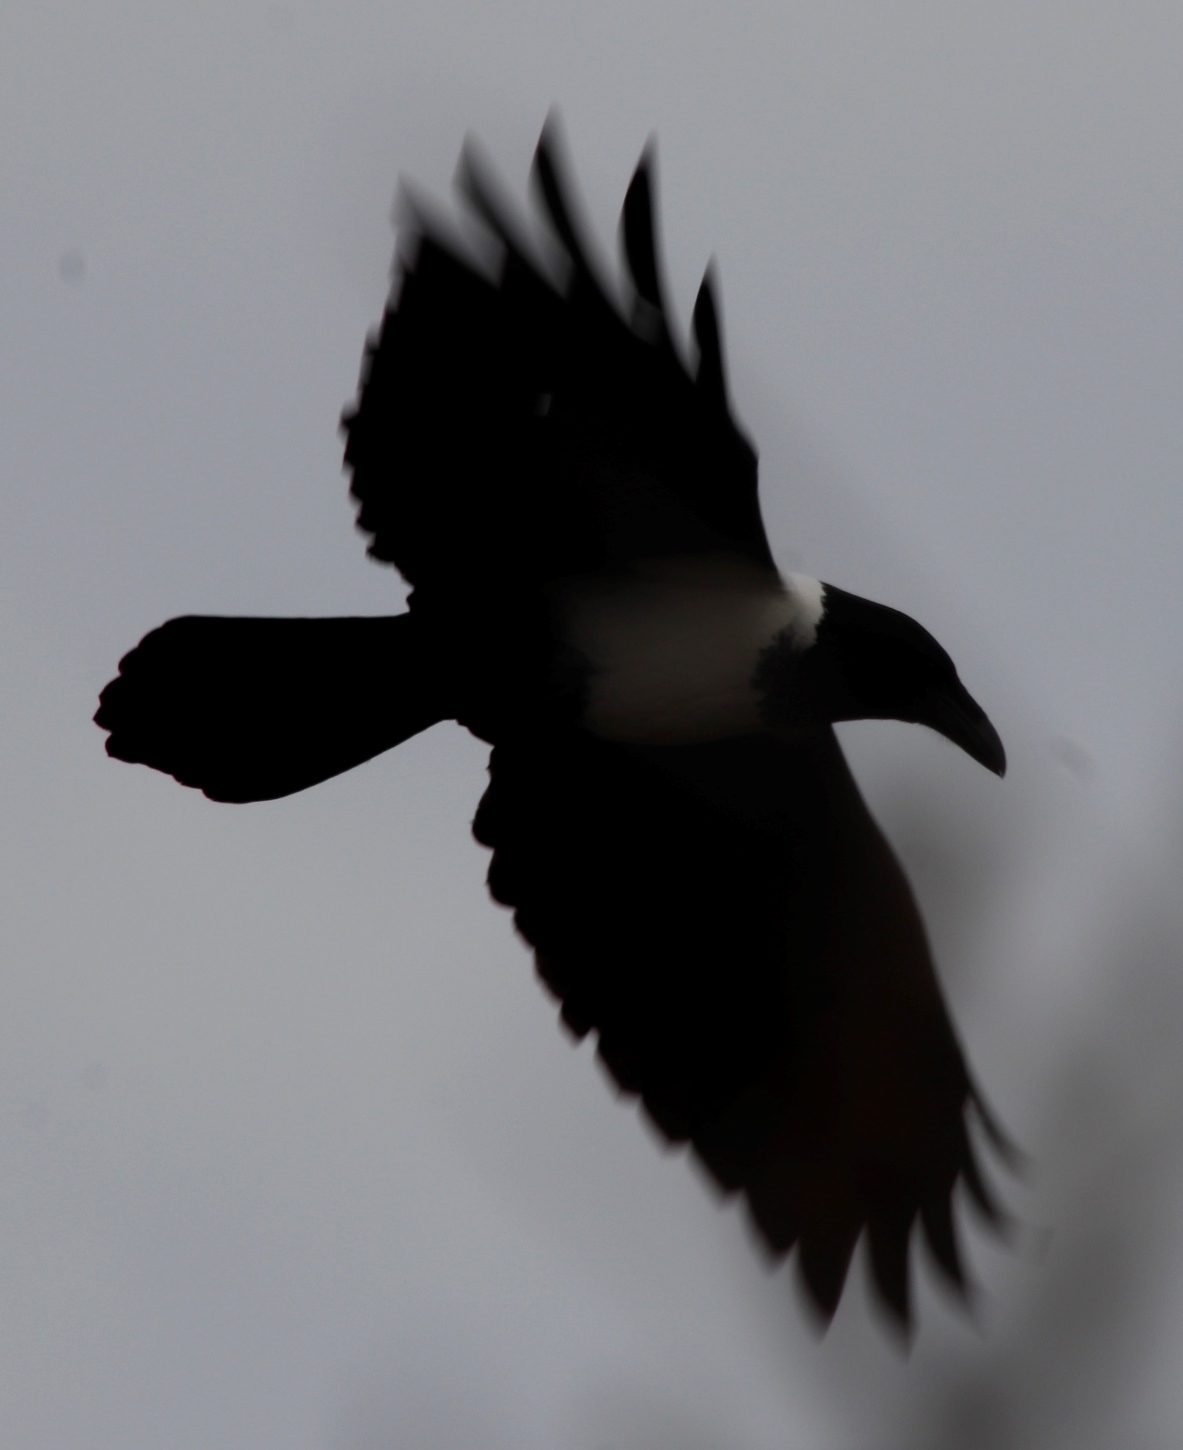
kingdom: Animalia
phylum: Chordata
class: Aves
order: Passeriformes
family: Corvidae
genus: Corvus
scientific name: Corvus albus
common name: Pied crow
